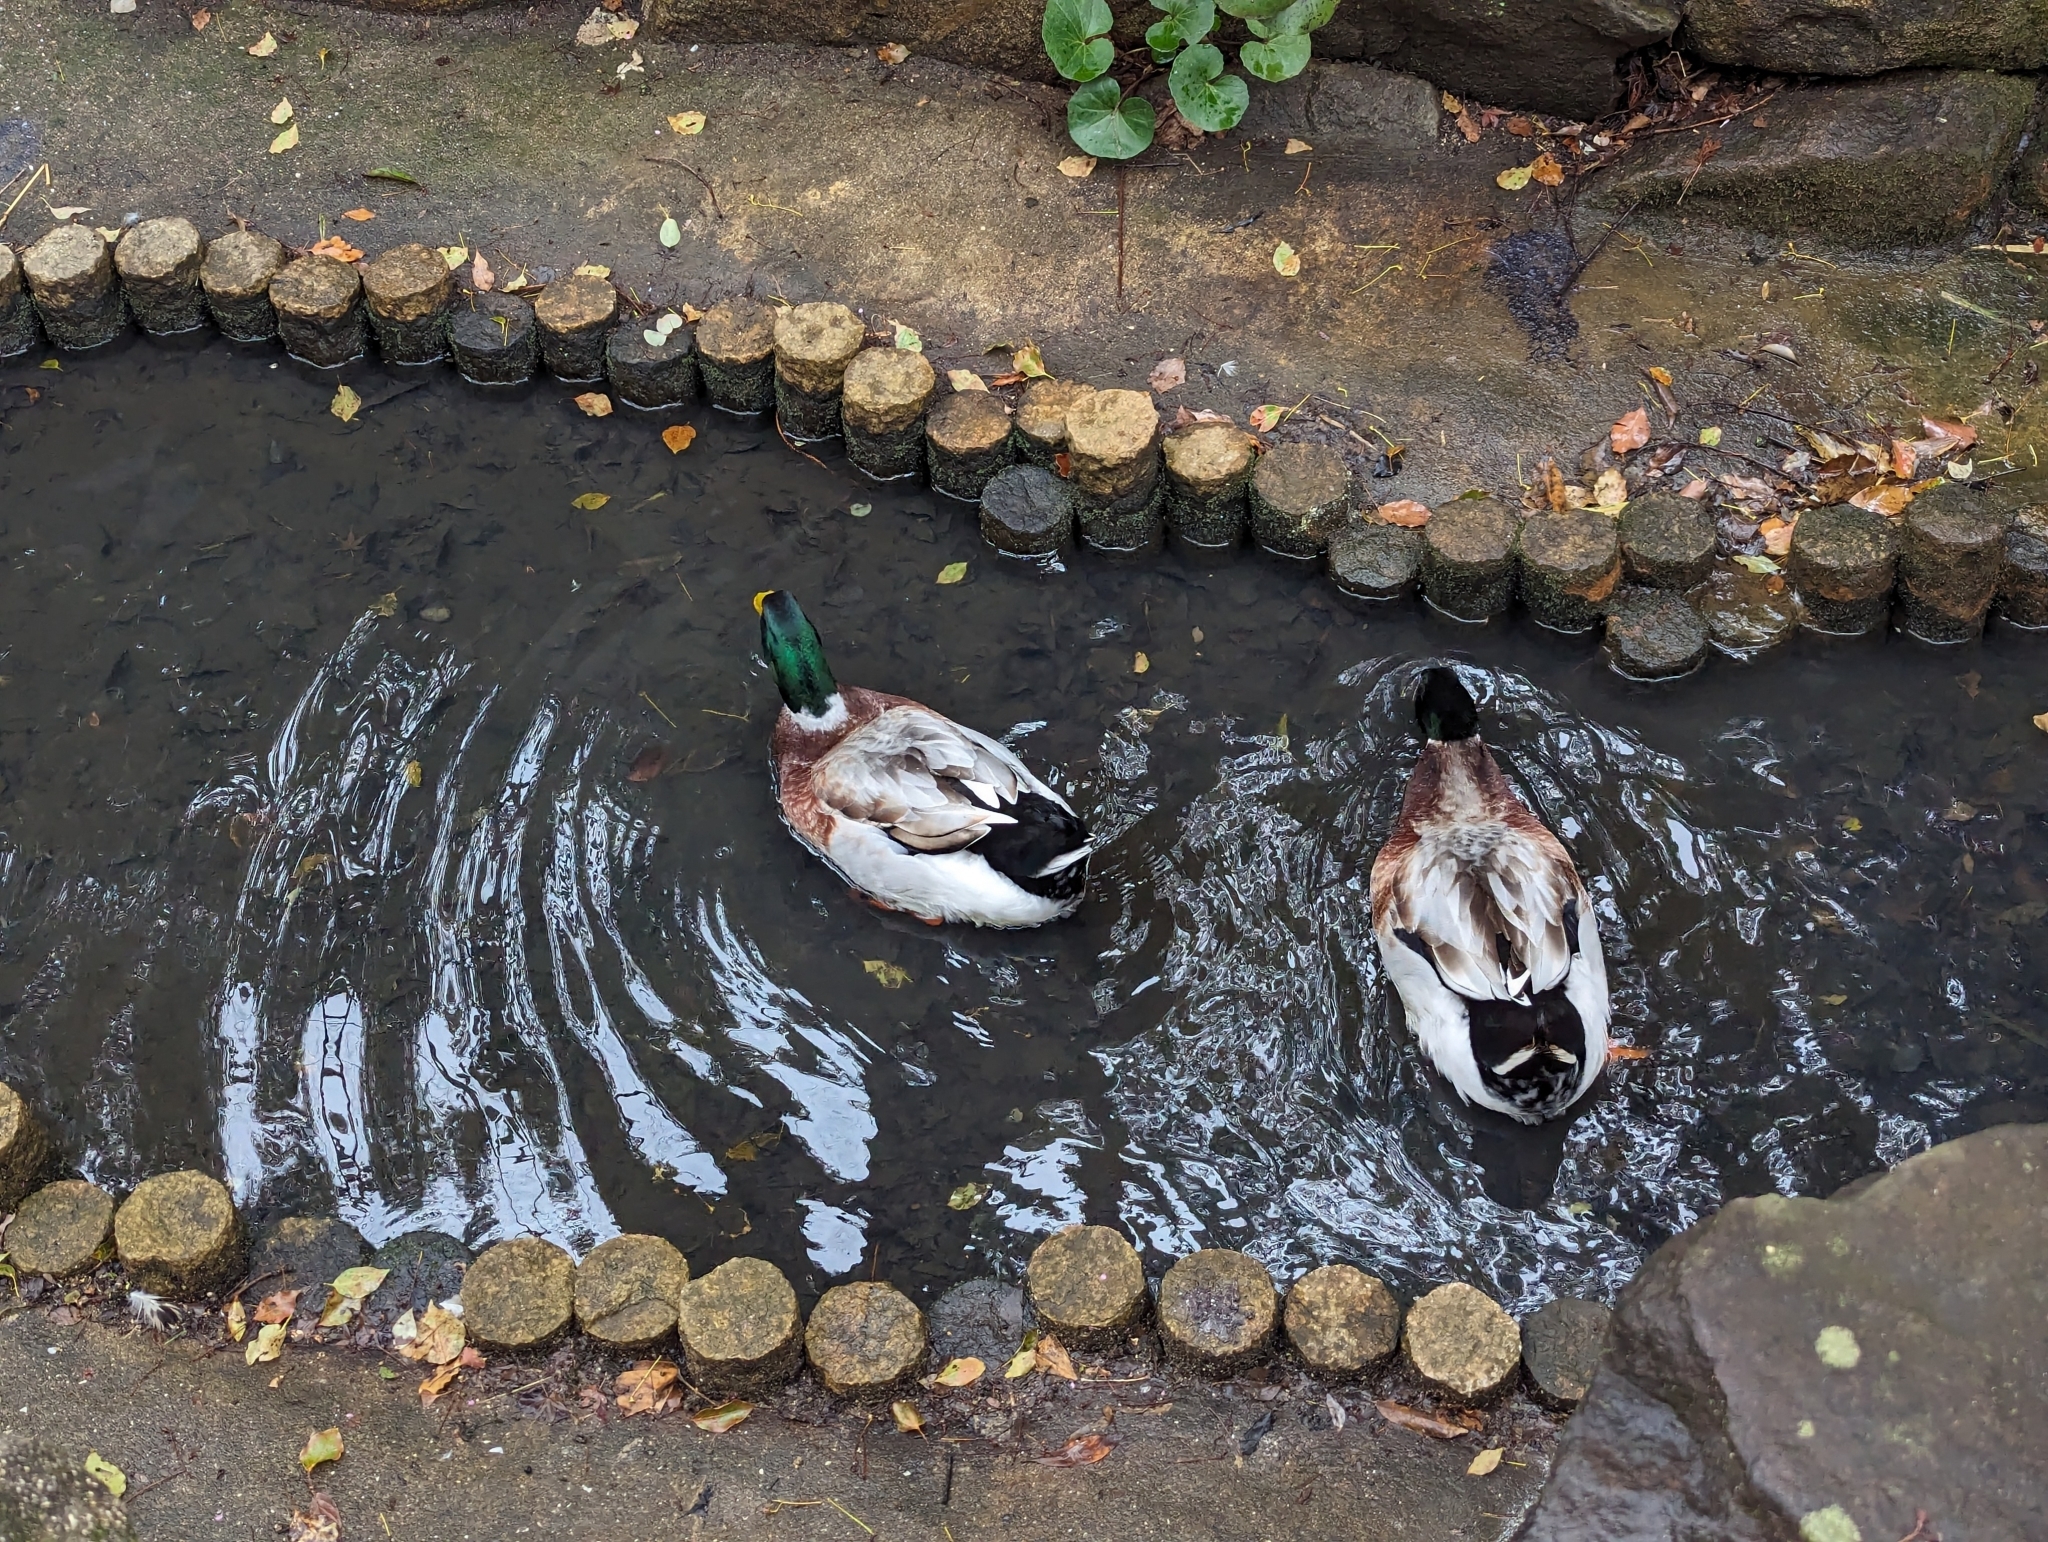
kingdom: Animalia
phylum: Chordata
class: Aves
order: Anseriformes
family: Anatidae
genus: Anas
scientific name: Anas platyrhynchos
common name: Mallard
